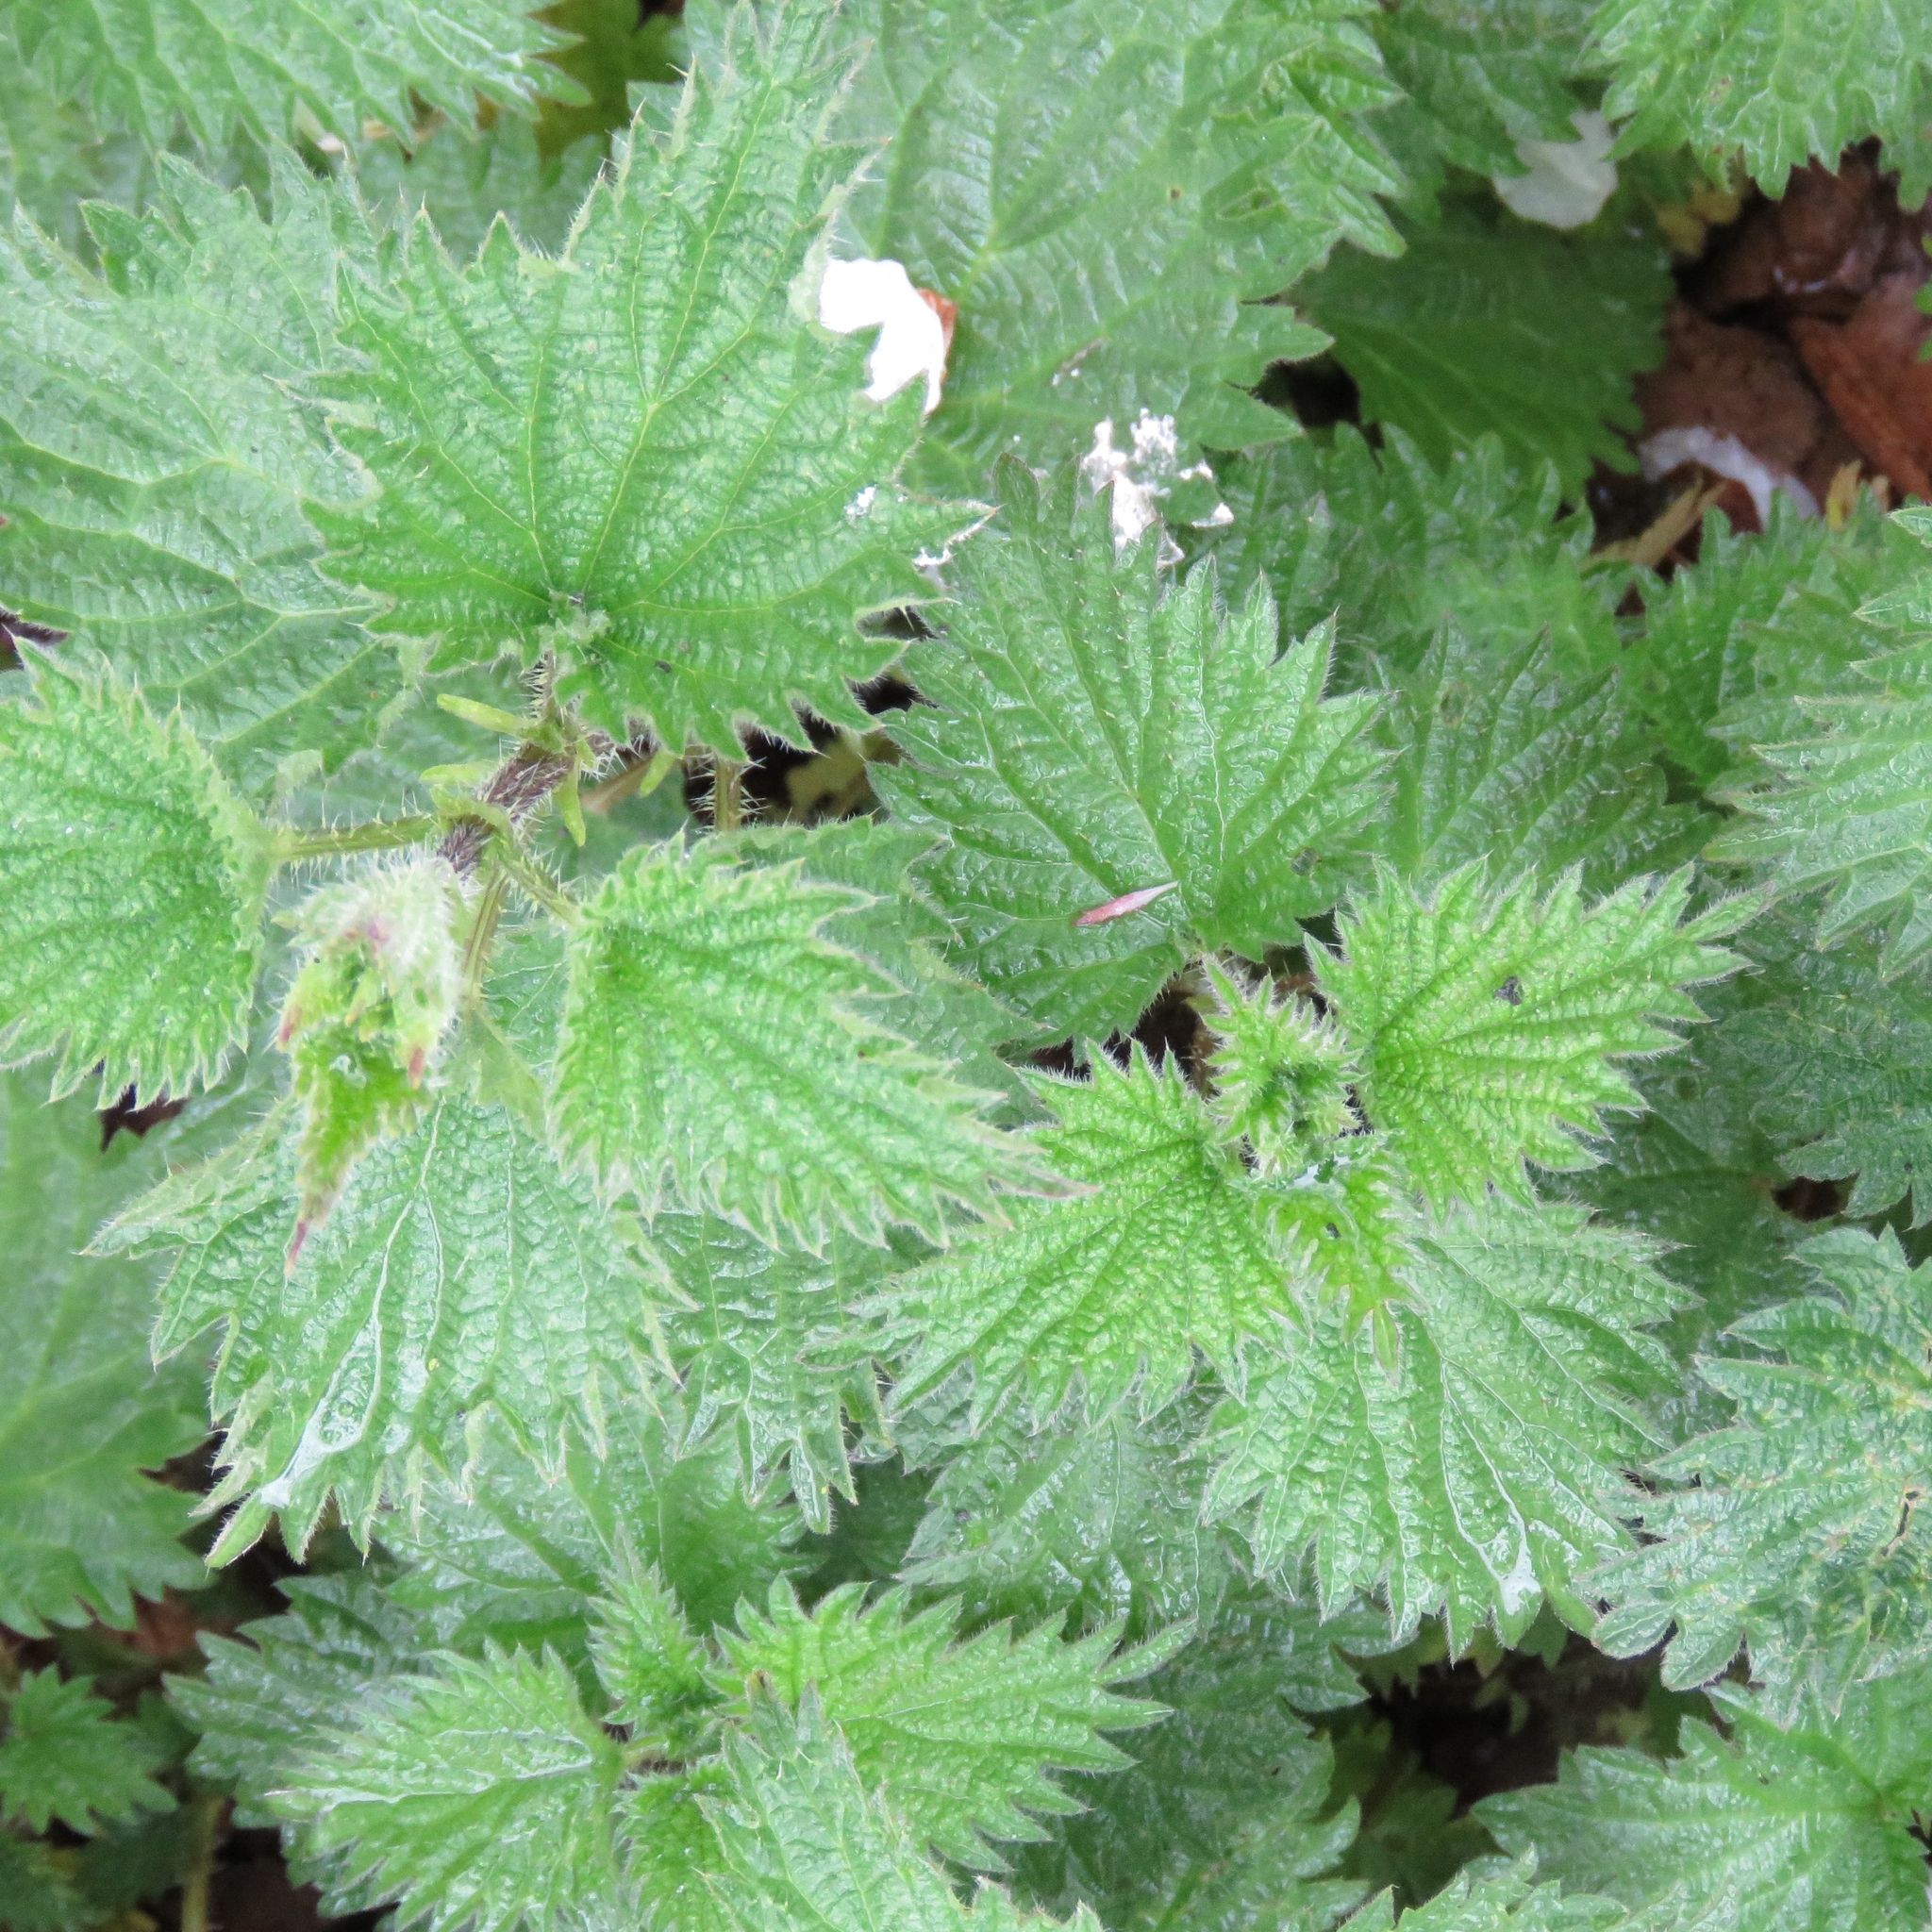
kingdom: Plantae
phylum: Tracheophyta
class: Magnoliopsida
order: Rosales
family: Urticaceae
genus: Urtica
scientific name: Urtica dioica
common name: Common nettle
